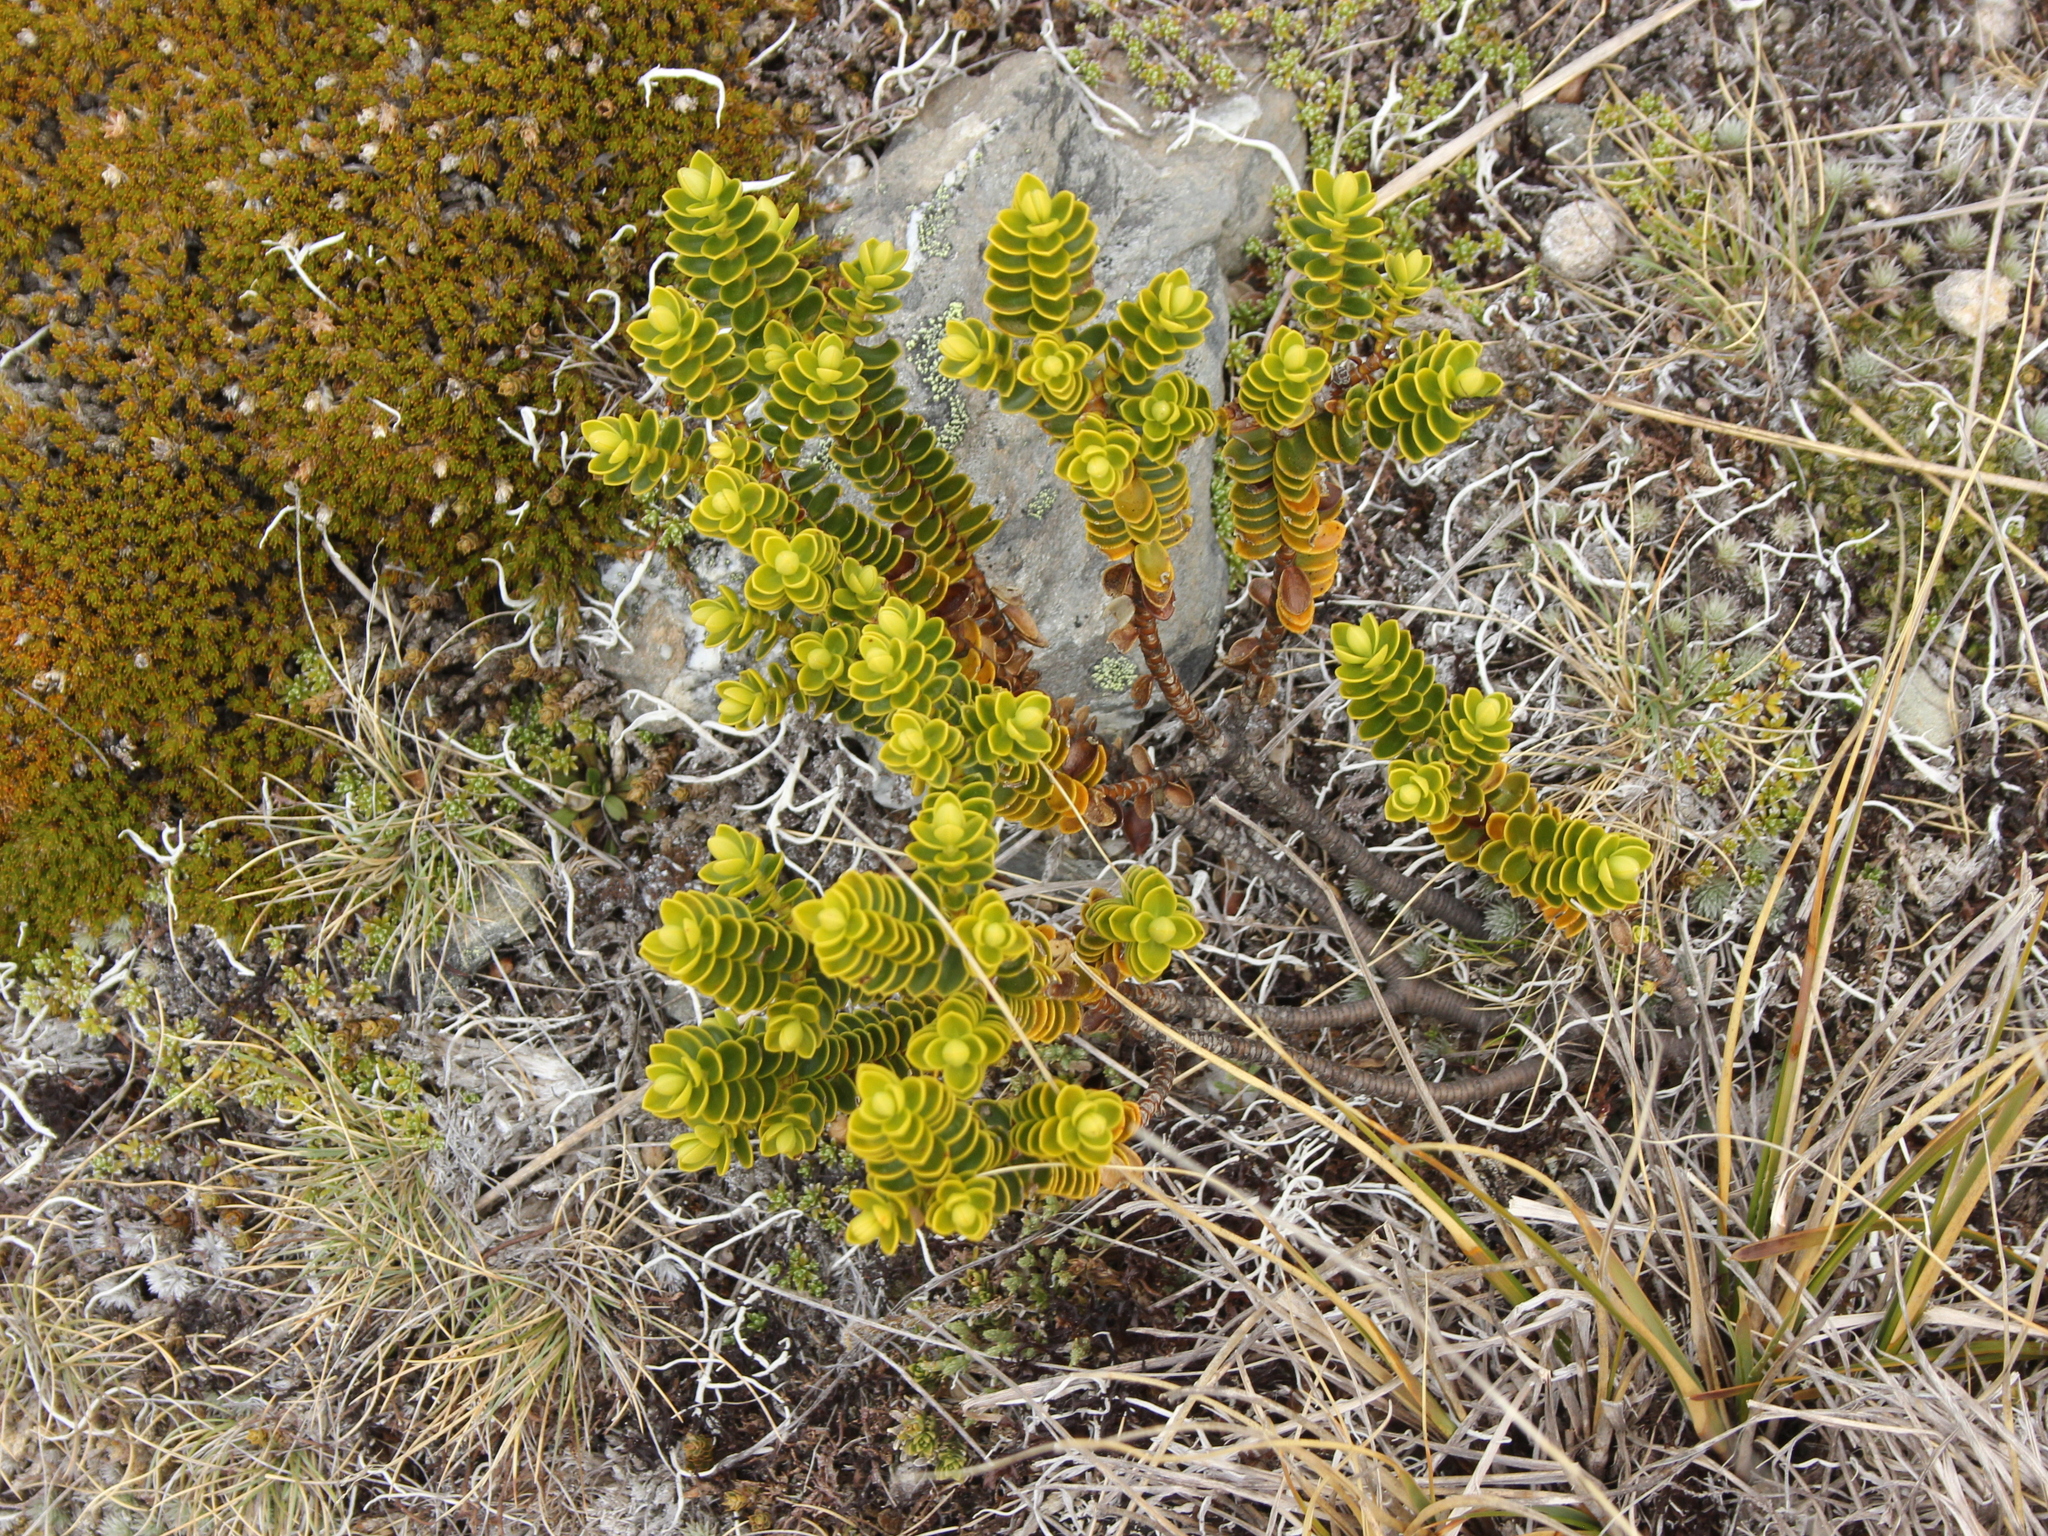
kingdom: Plantae
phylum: Tracheophyta
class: Magnoliopsida
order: Lamiales
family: Plantaginaceae
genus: Veronica
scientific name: Veronica odora
